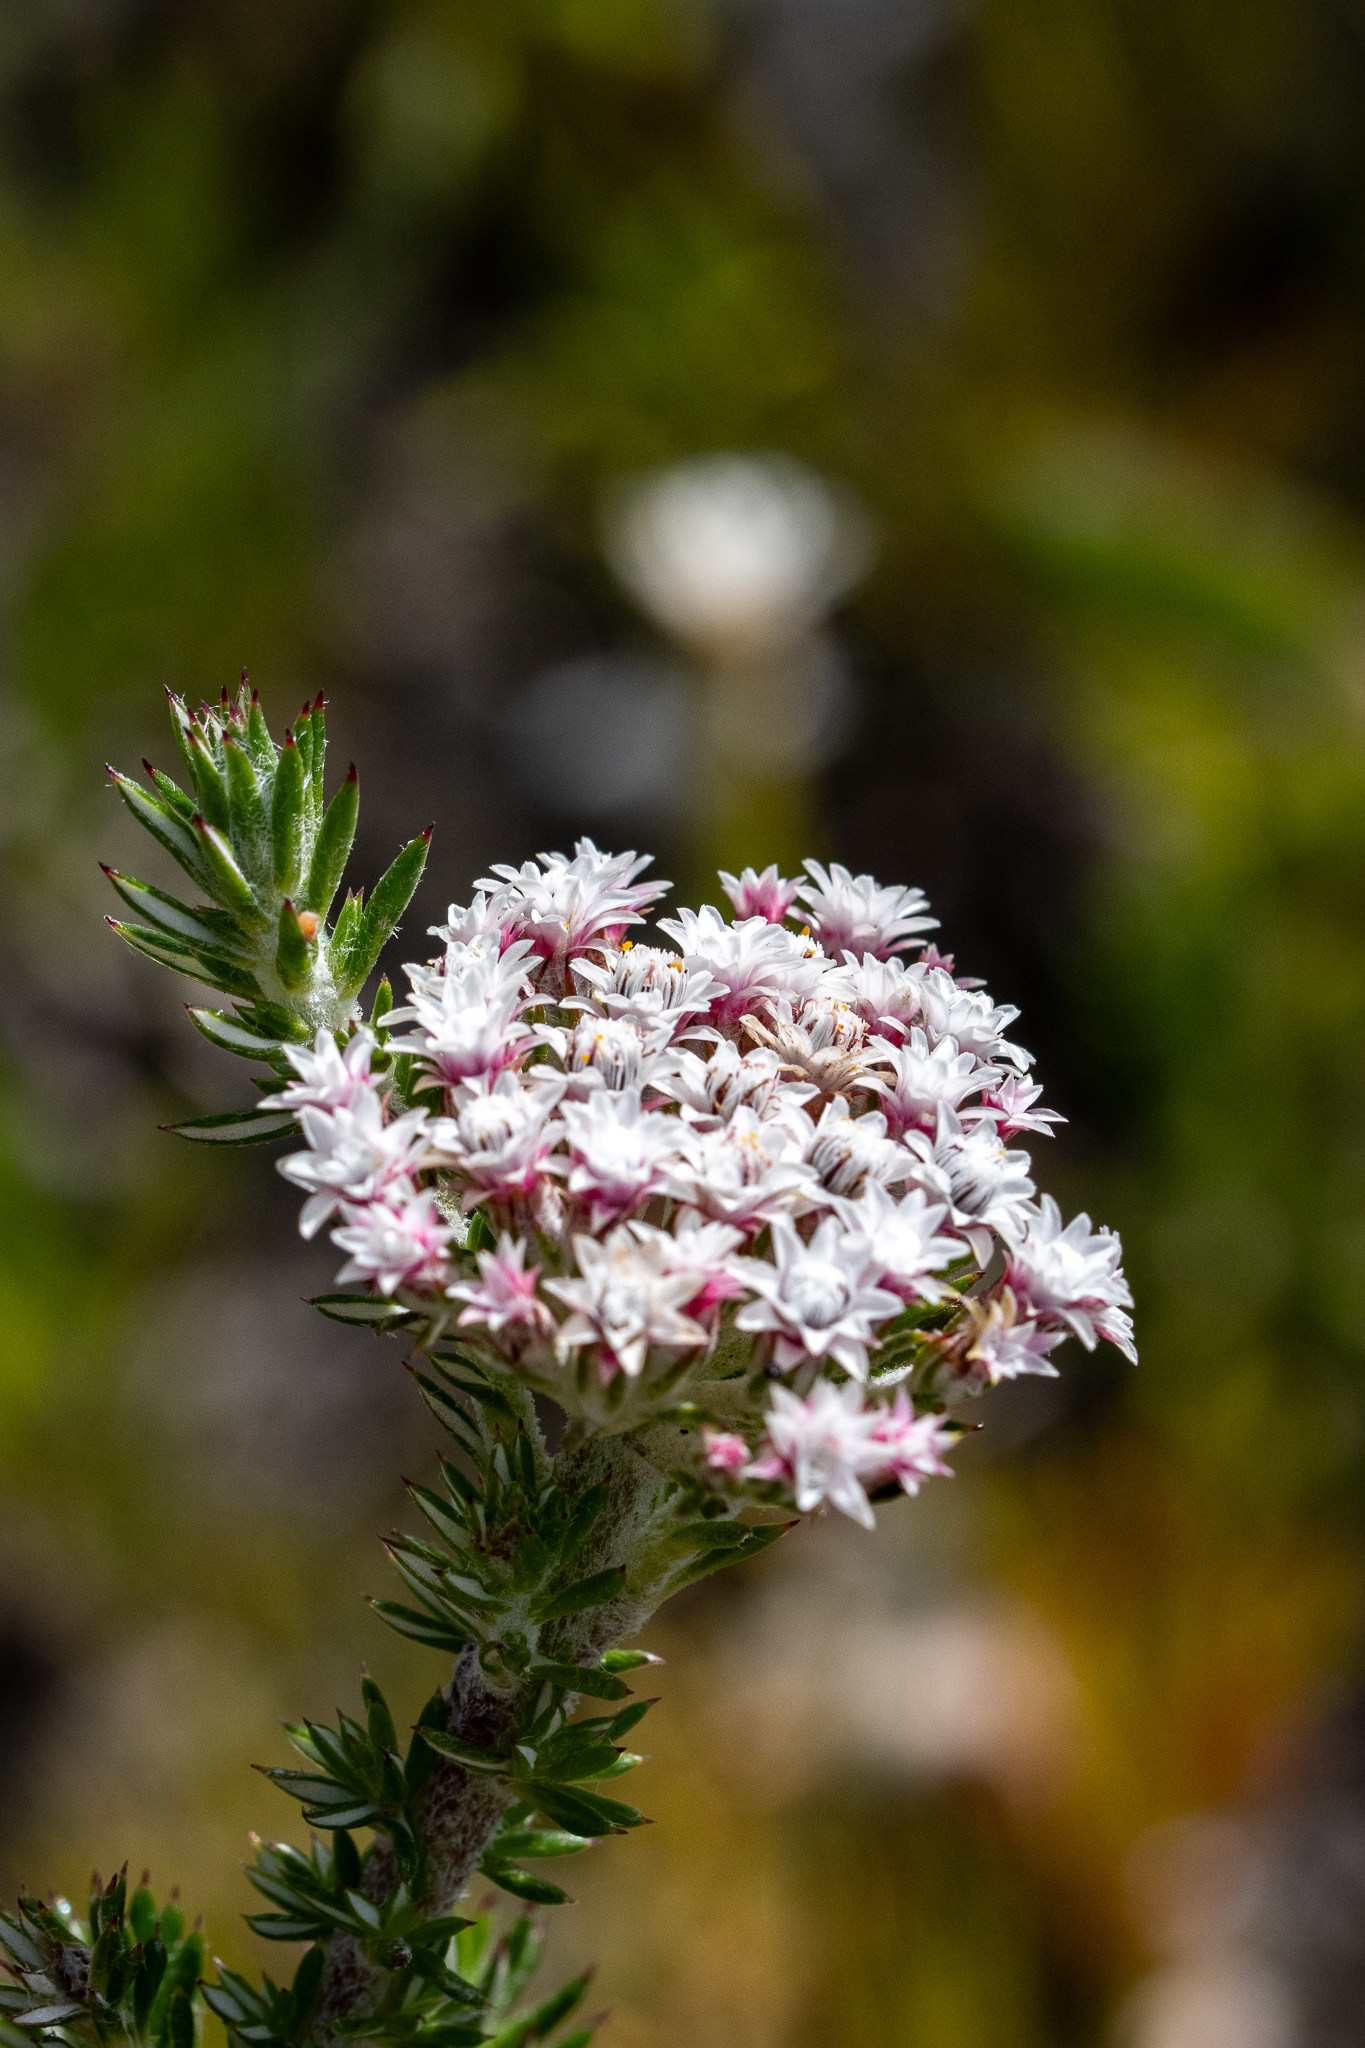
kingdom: Plantae
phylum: Tracheophyta
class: Magnoliopsida
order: Asterales
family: Asteraceae
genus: Metalasia
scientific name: Metalasia lichtensteinii
